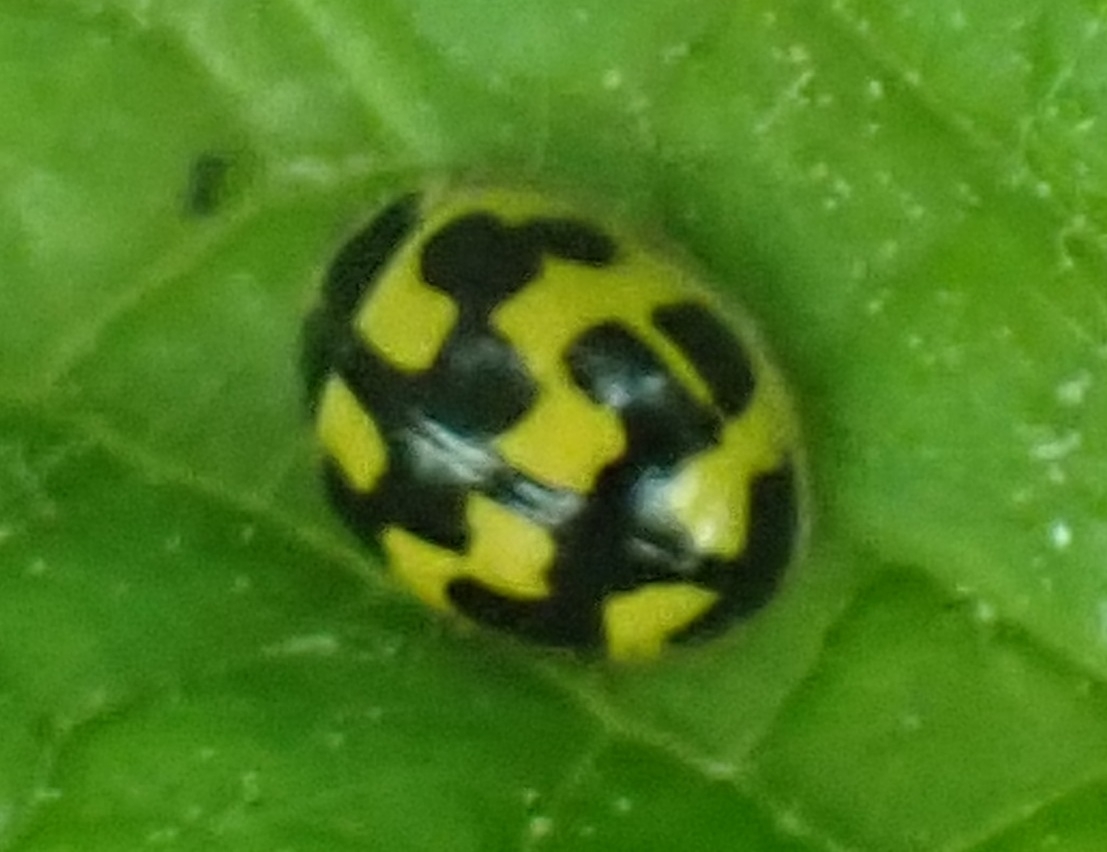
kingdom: Animalia
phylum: Arthropoda
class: Insecta
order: Coleoptera
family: Coccinellidae
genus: Propylaea
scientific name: Propylaea quatuordecimpunctata
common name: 14-spotted ladybird beetle
